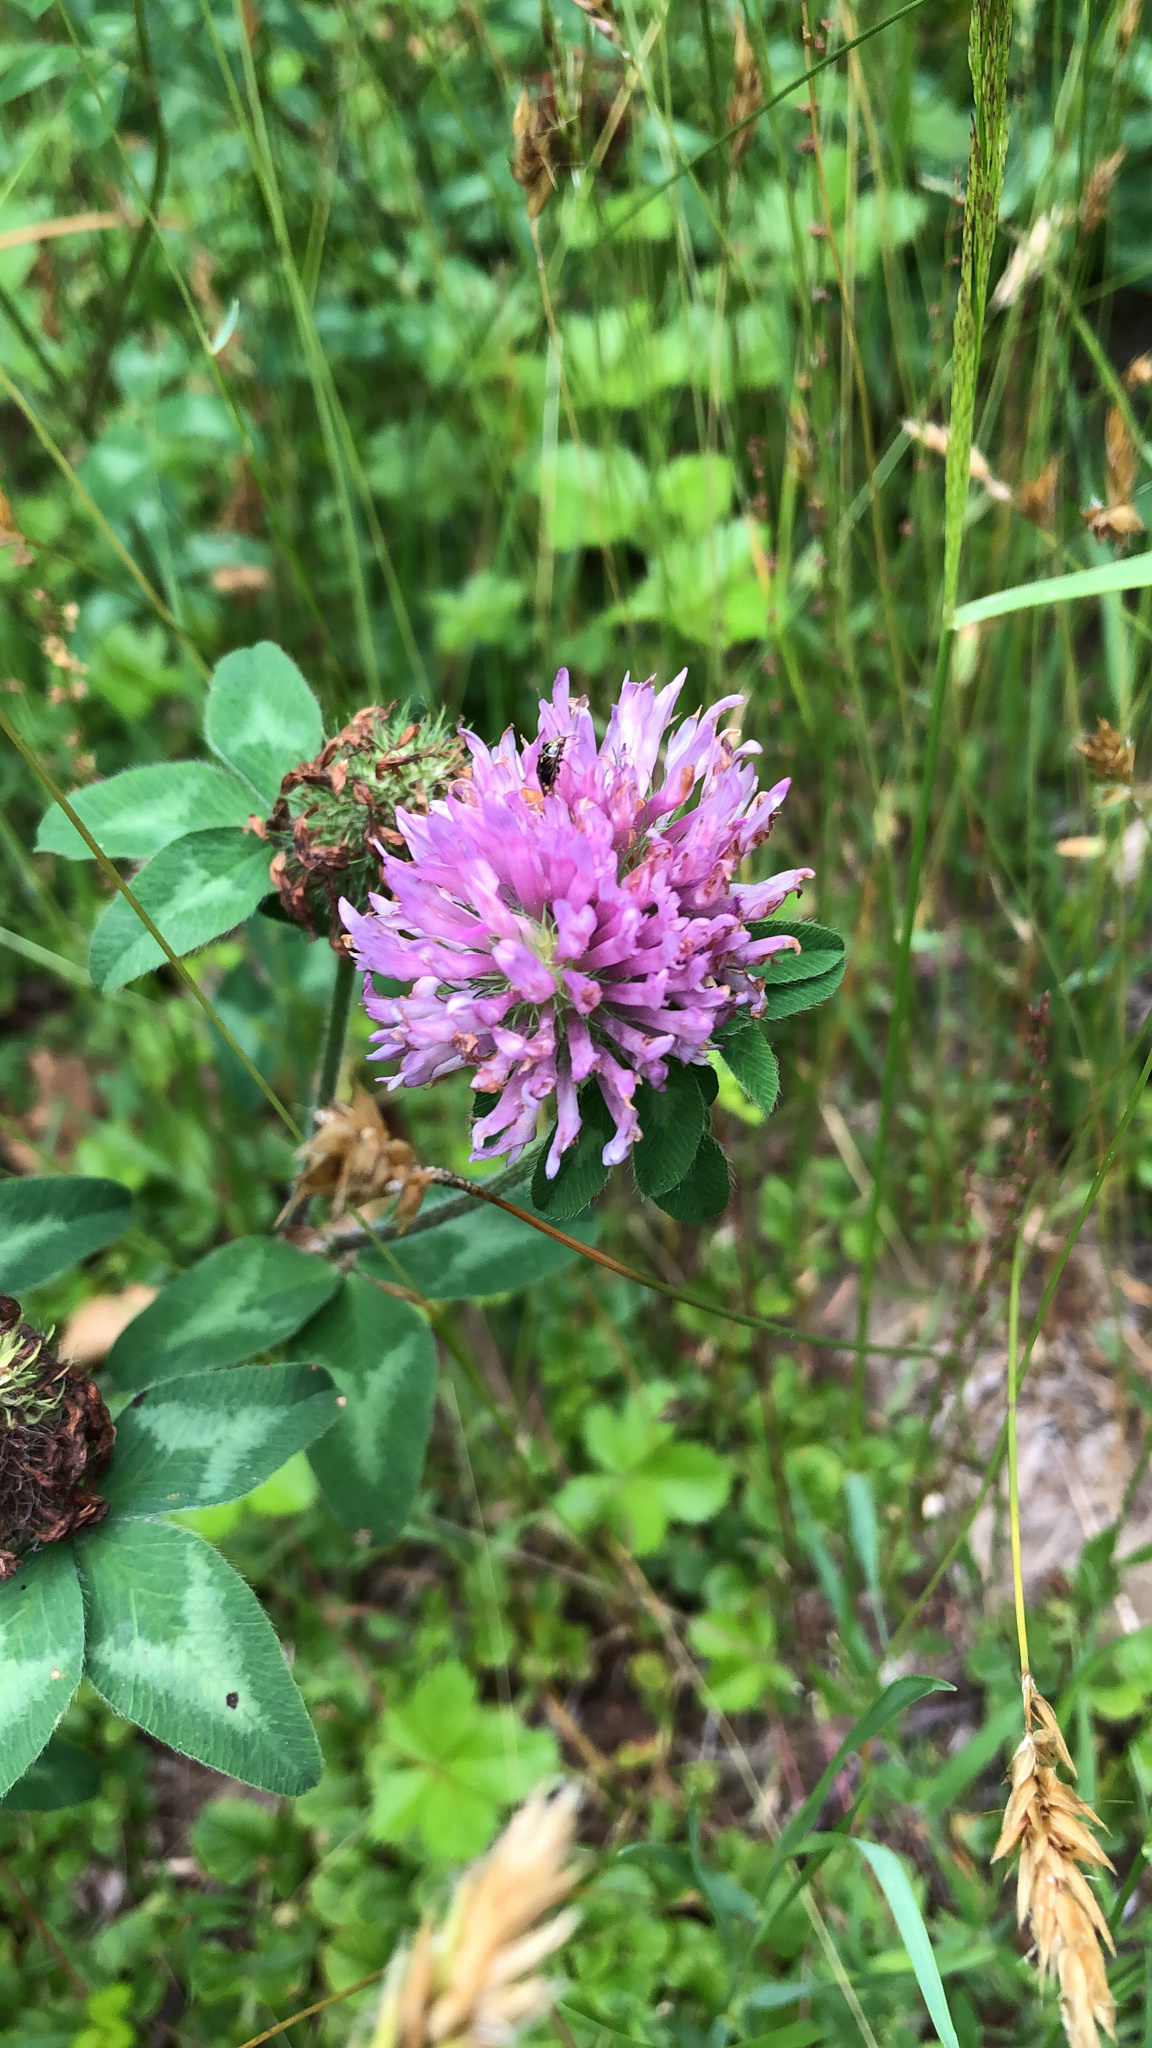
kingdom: Plantae
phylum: Tracheophyta
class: Magnoliopsida
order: Fabales
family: Fabaceae
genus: Trifolium
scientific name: Trifolium pratense
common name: Red clover
